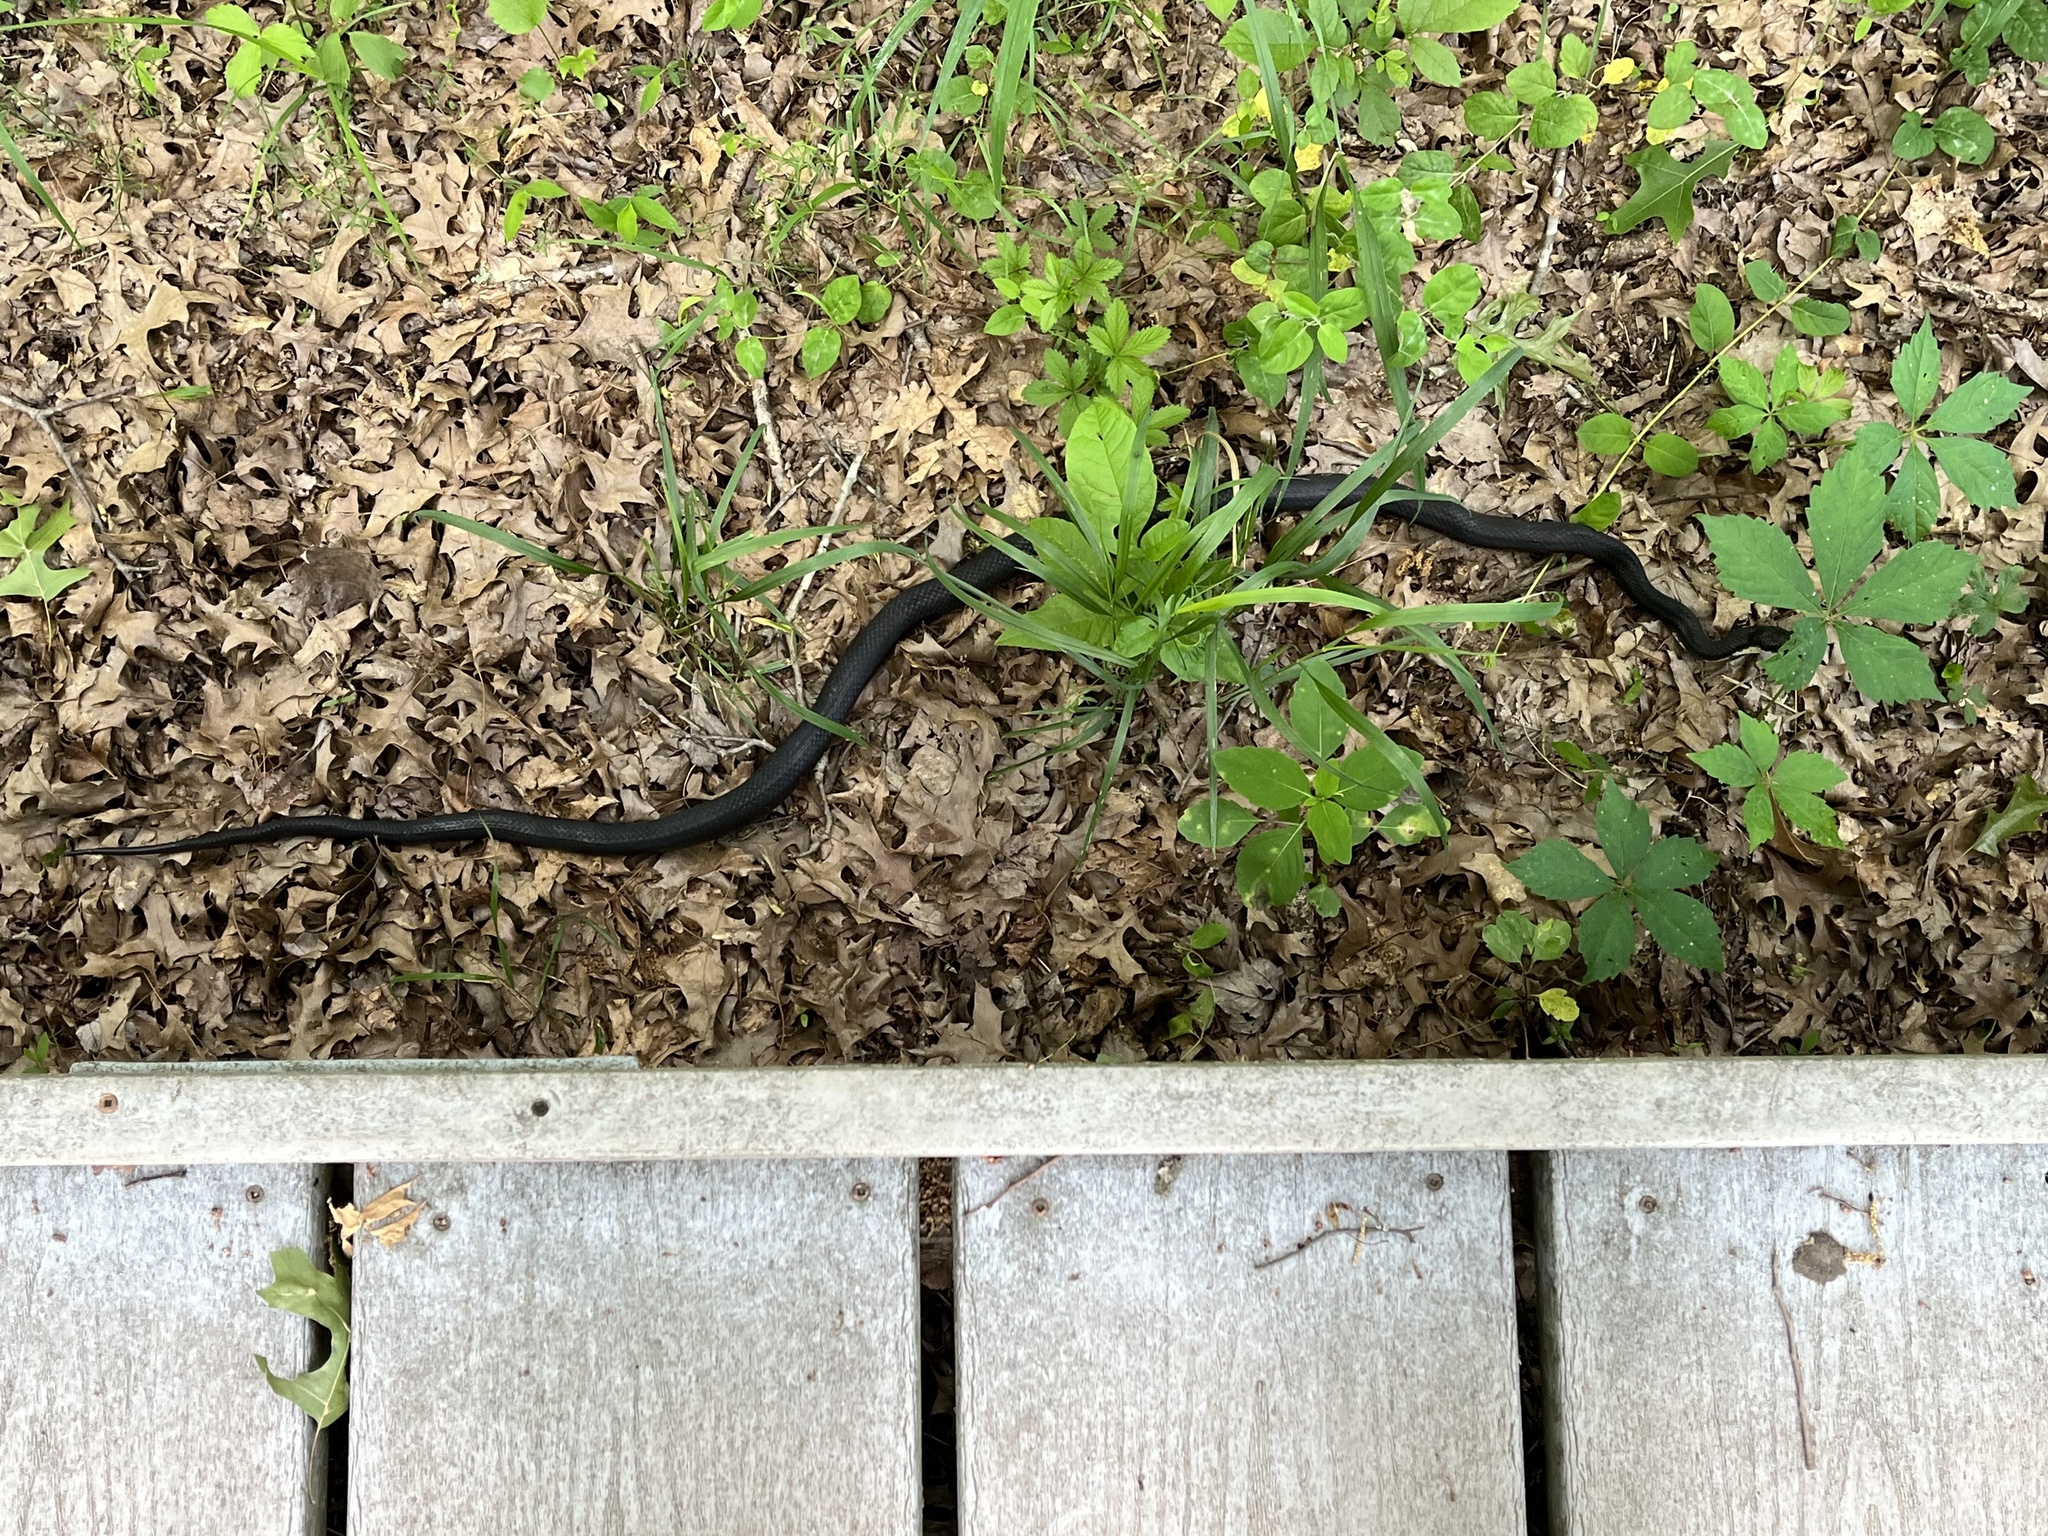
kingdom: Animalia
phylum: Chordata
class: Squamata
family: Colubridae
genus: Pantherophis
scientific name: Pantherophis
